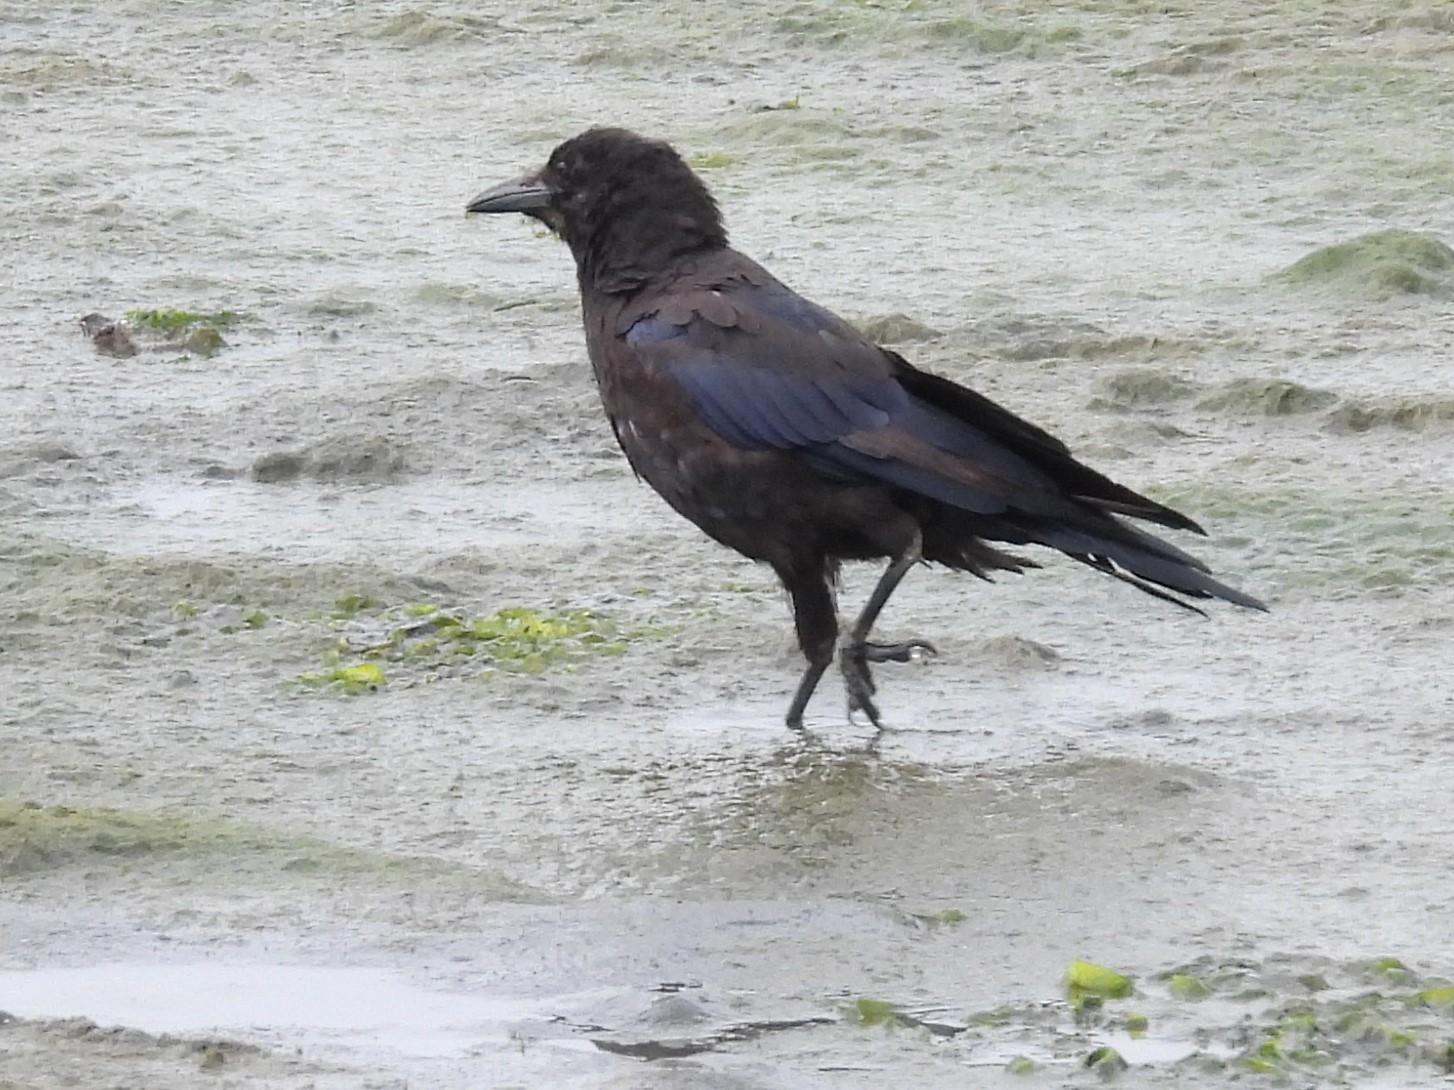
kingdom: Animalia
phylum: Chordata
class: Aves
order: Passeriformes
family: Corvidae
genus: Corvus
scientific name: Corvus brachyrhynchos
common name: American crow
